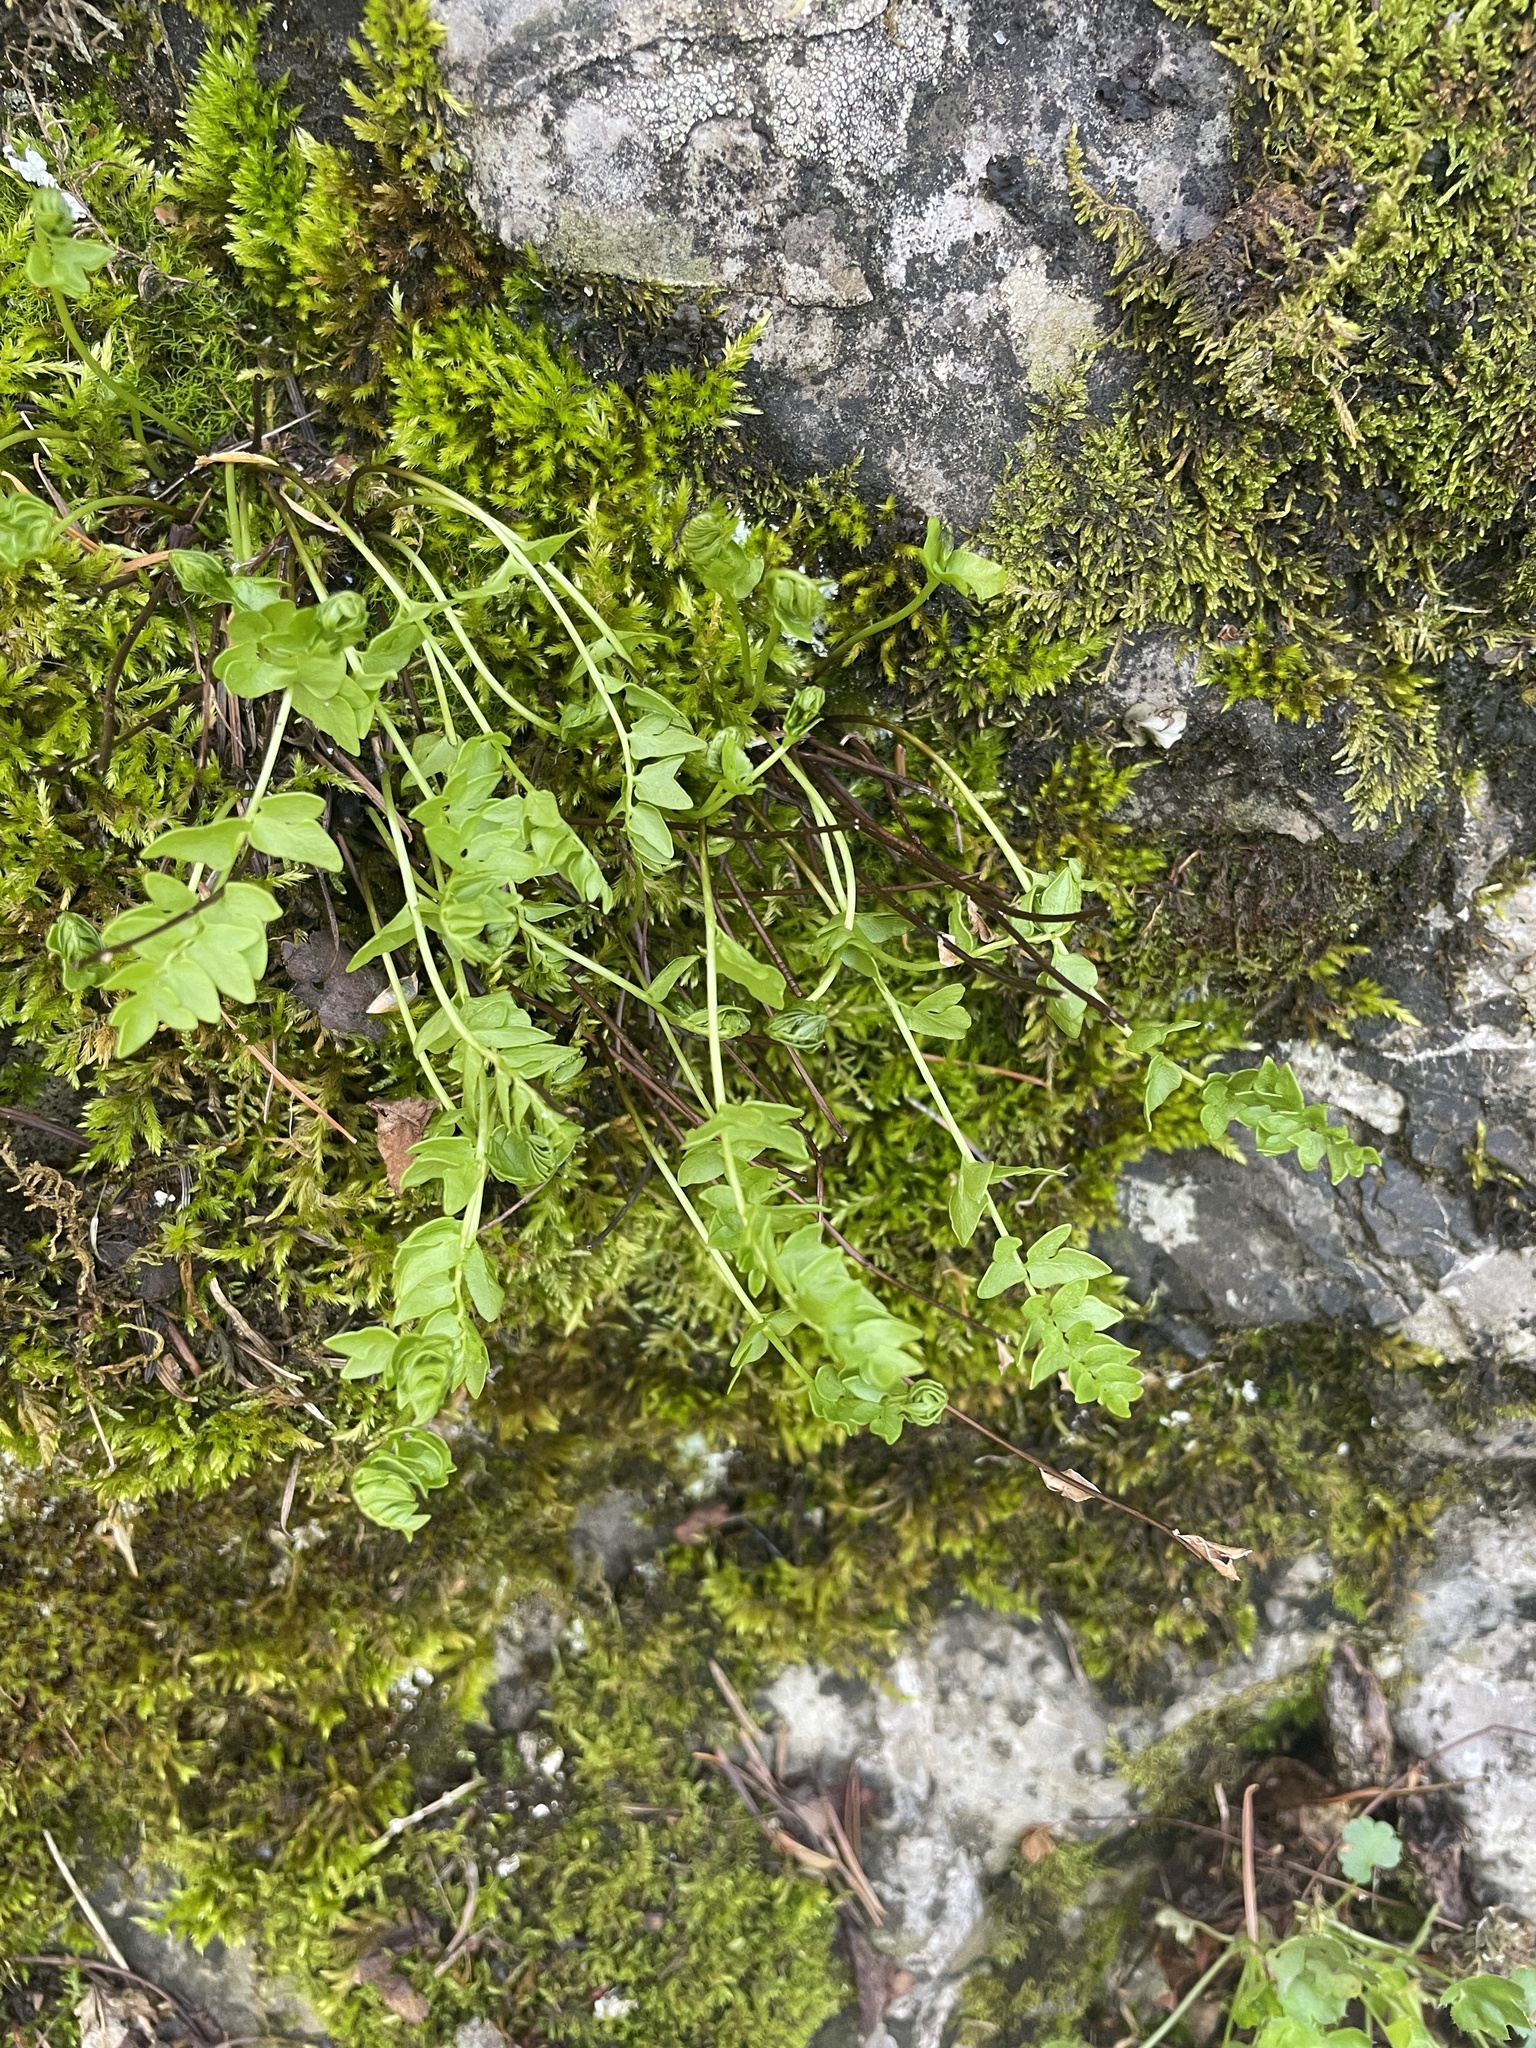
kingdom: Plantae
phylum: Tracheophyta
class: Polypodiopsida
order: Polypodiales
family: Pteridaceae
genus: Pellaea
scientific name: Pellaea breweri
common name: Brewer's cliffbrake
